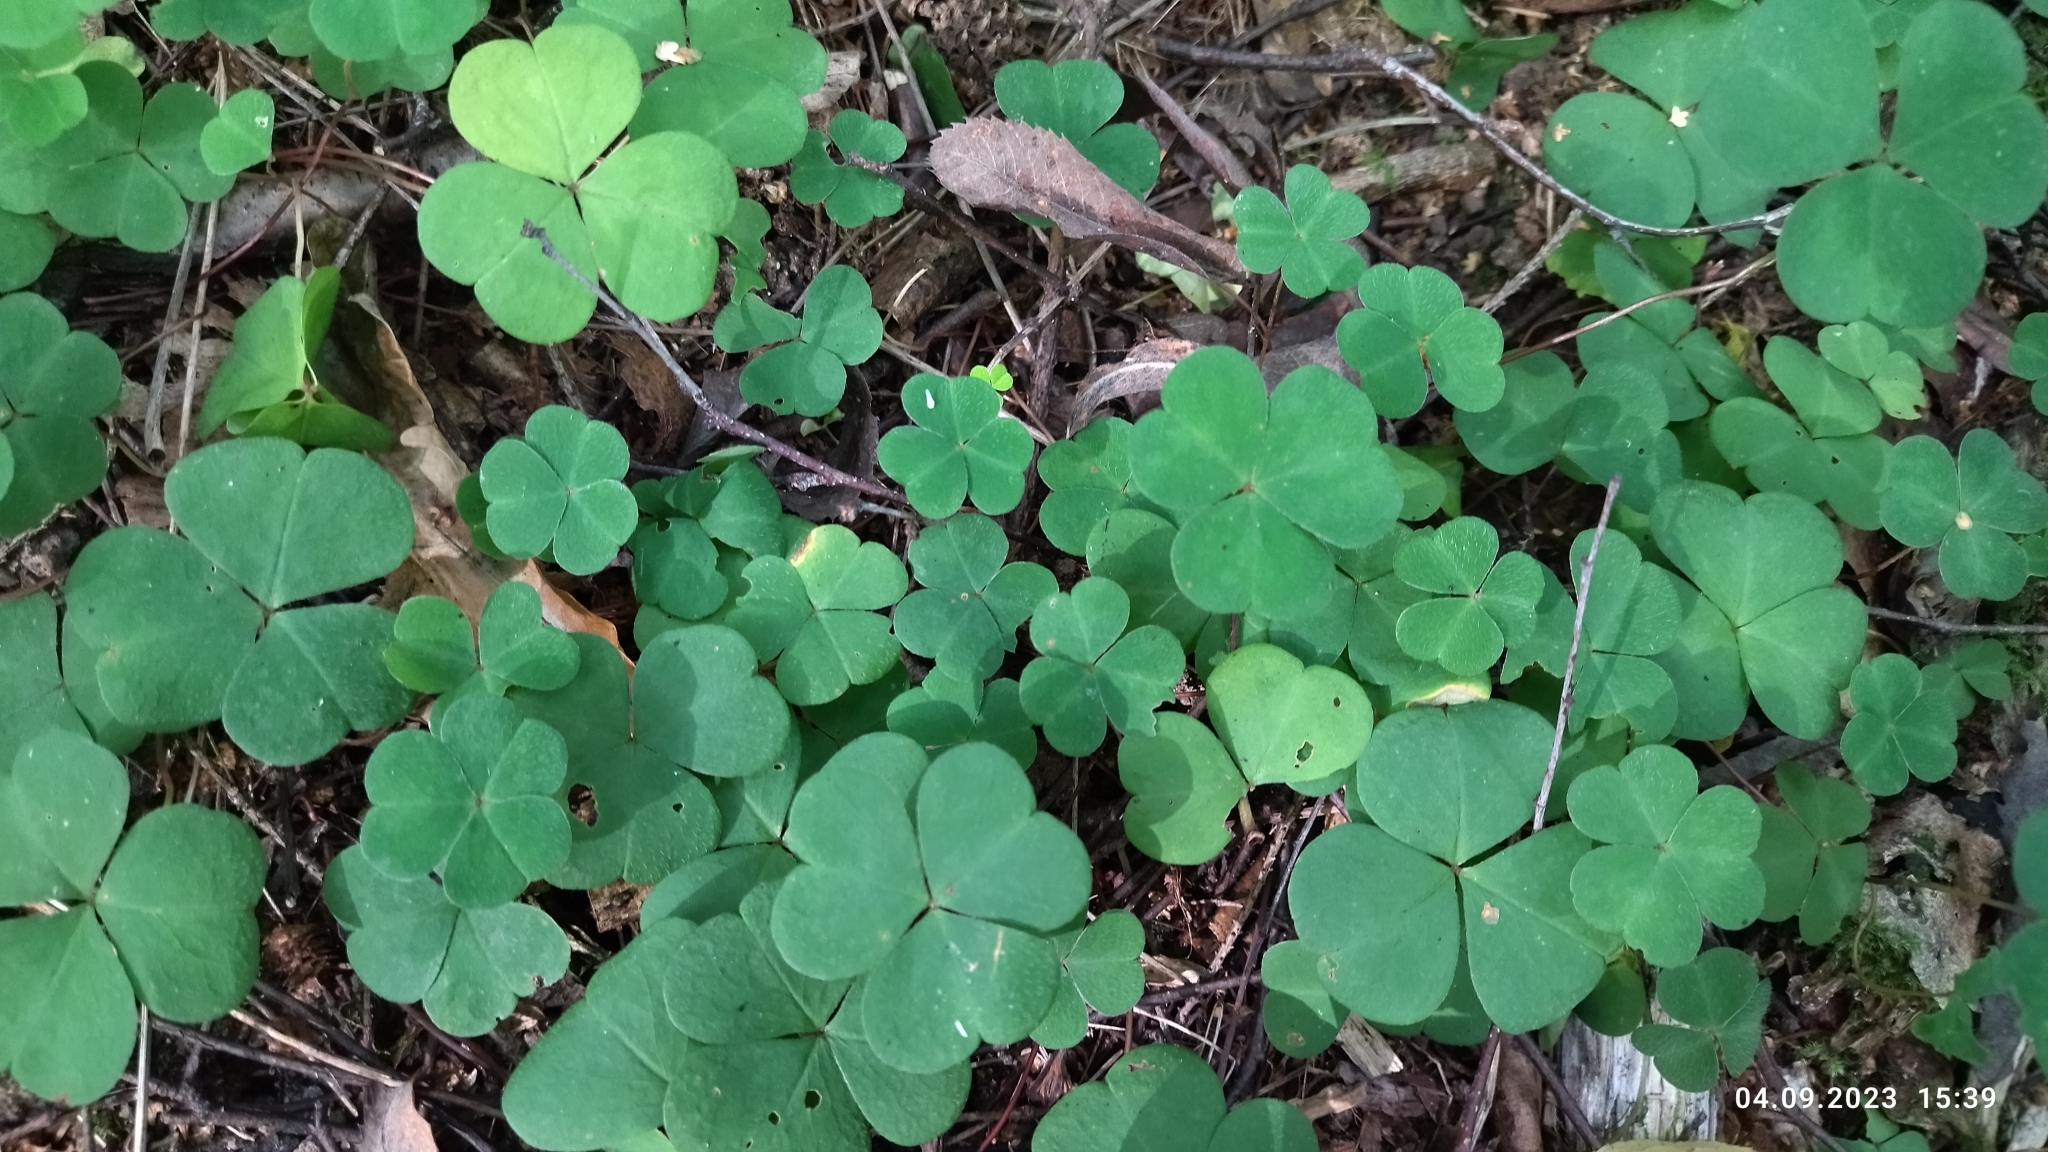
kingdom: Plantae
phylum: Tracheophyta
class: Magnoliopsida
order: Oxalidales
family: Oxalidaceae
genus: Oxalis
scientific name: Oxalis acetosella
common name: Wood-sorrel
